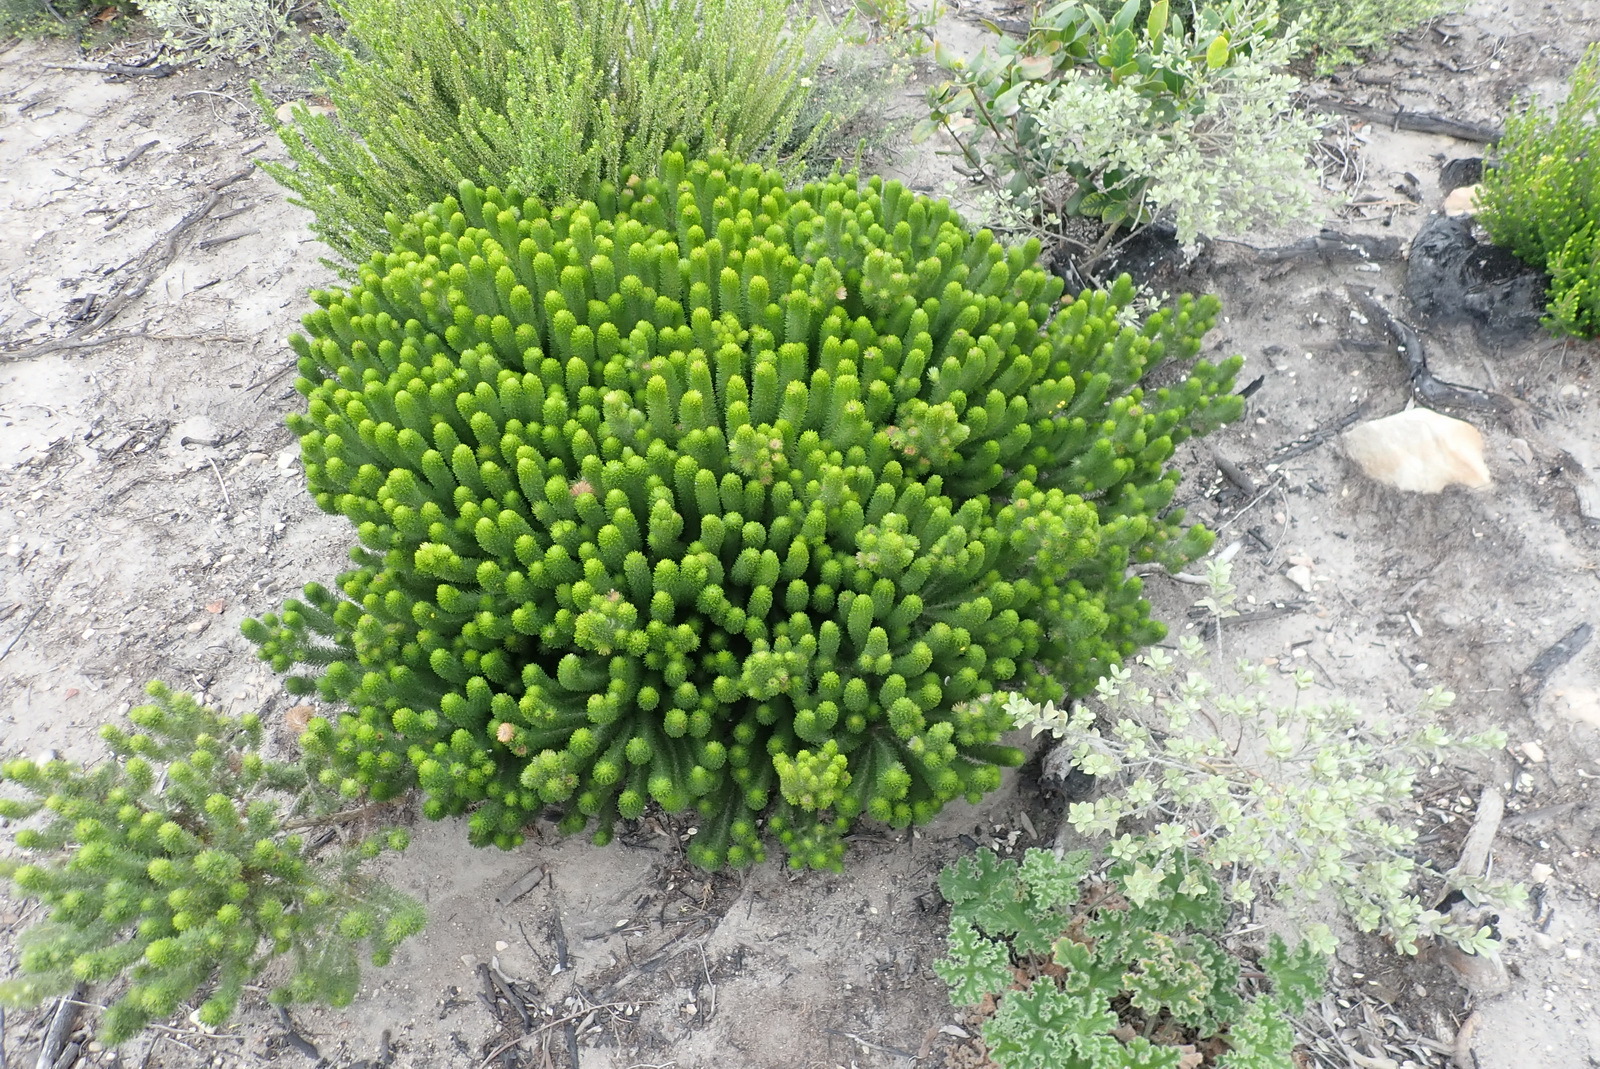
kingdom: Plantae
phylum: Tracheophyta
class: Magnoliopsida
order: Fabales
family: Fabaceae
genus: Aspalathus
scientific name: Aspalathus alopecurus
